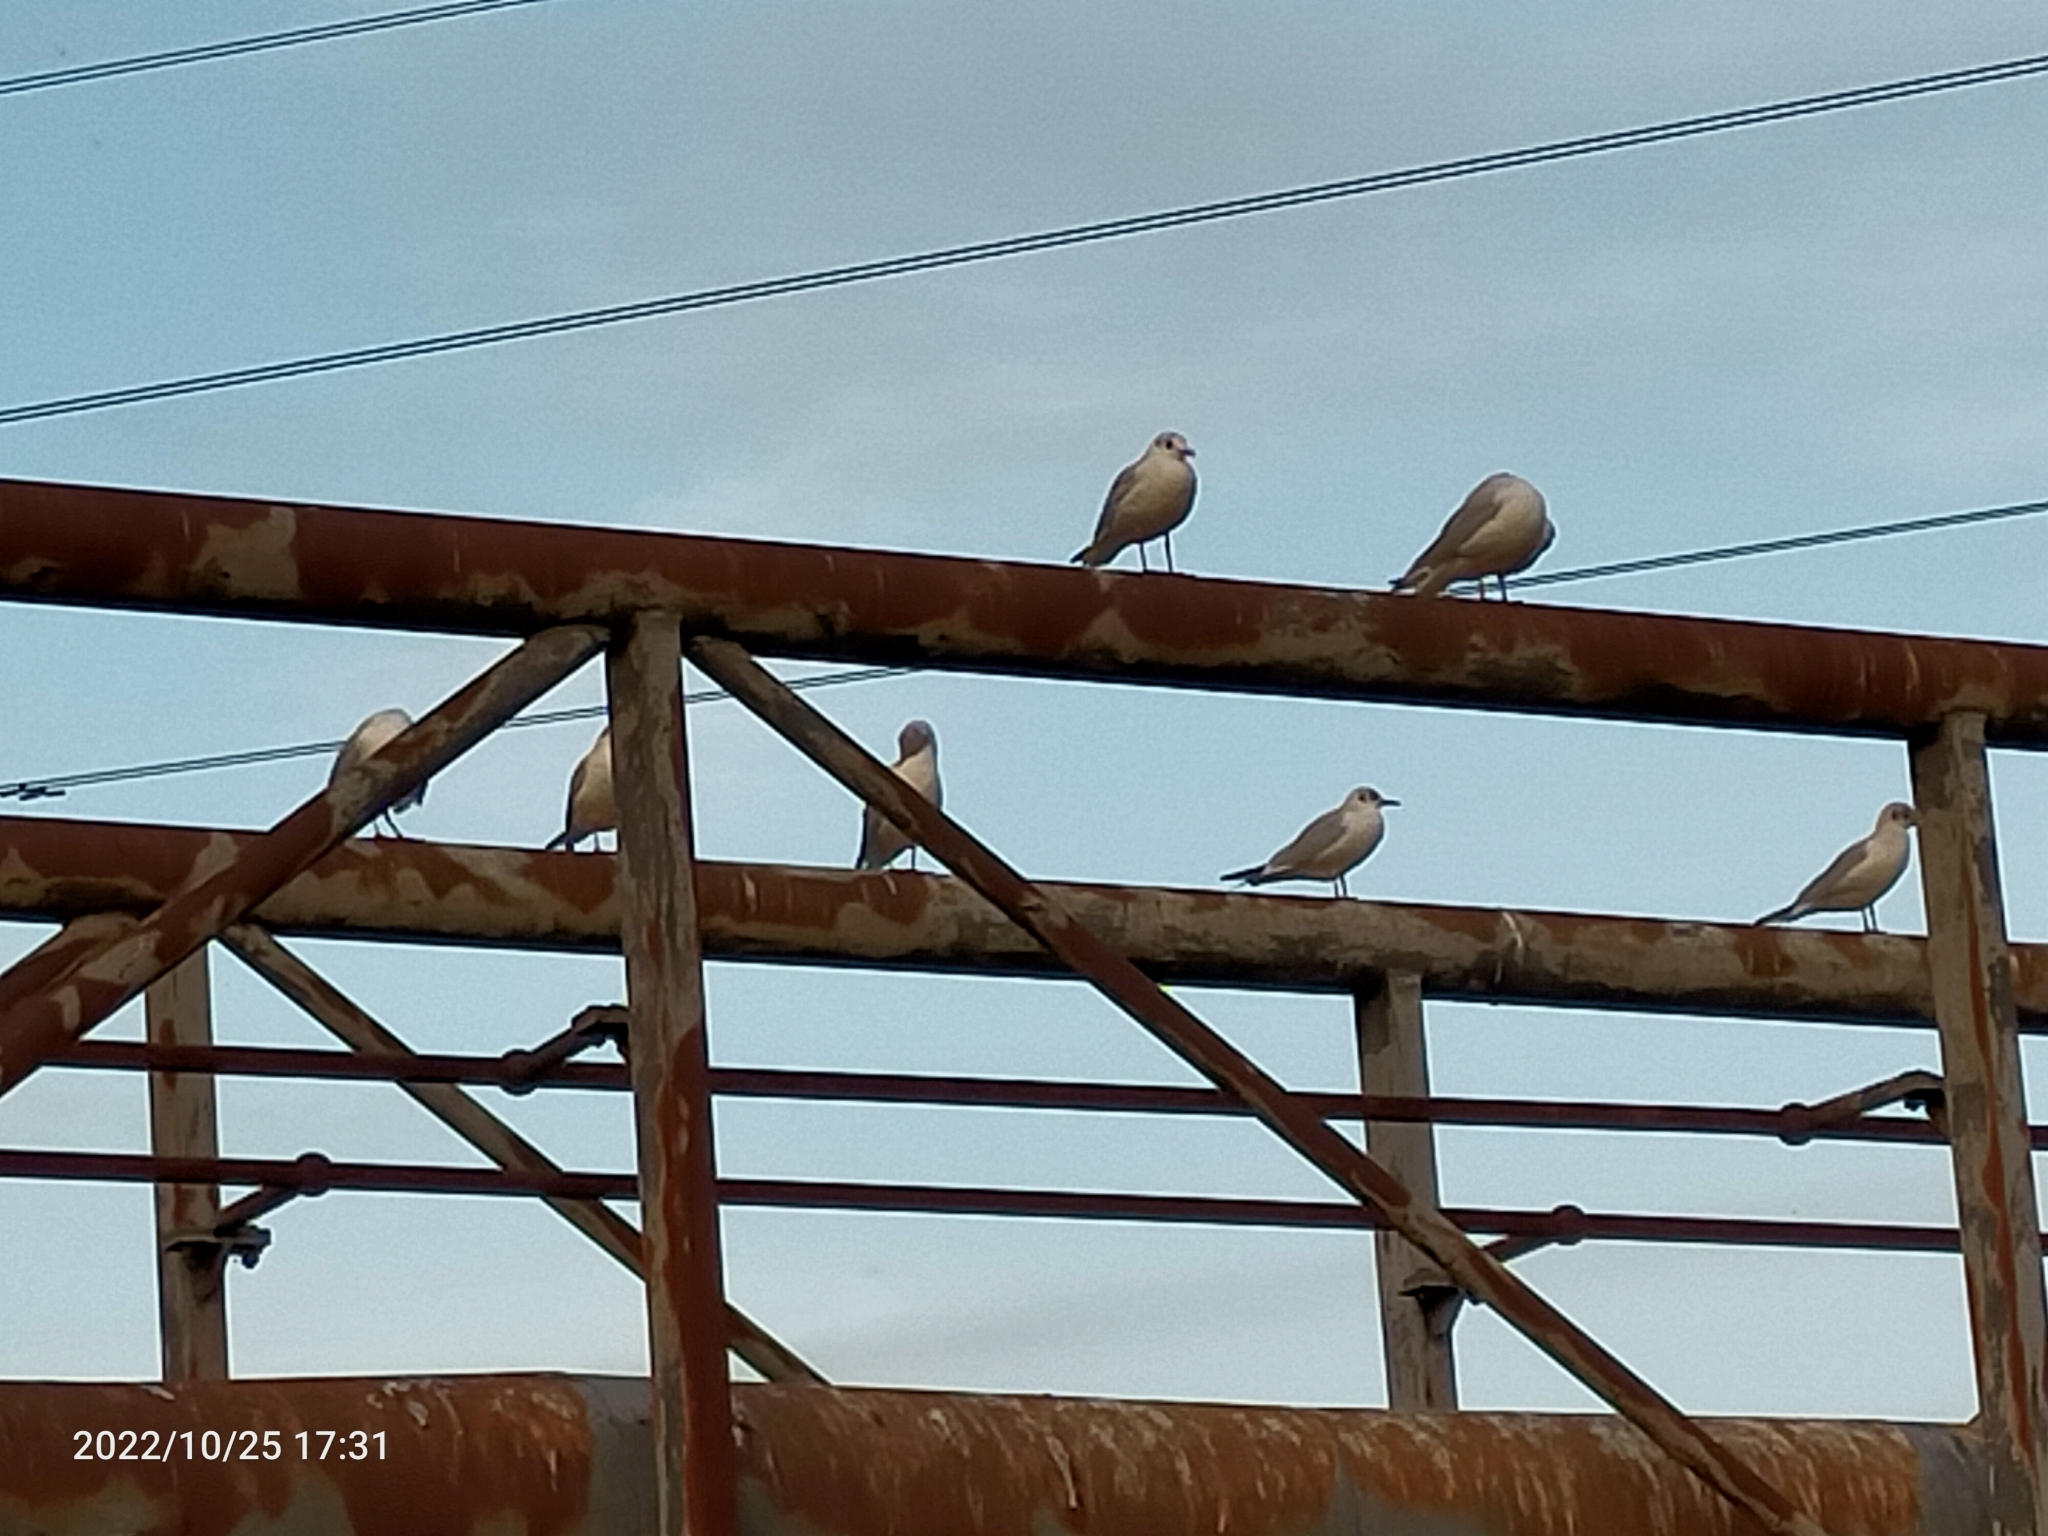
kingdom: Animalia
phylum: Chordata
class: Aves
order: Charadriiformes
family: Laridae
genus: Chroicocephalus
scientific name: Chroicocephalus ridibundus
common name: Black-headed gull
